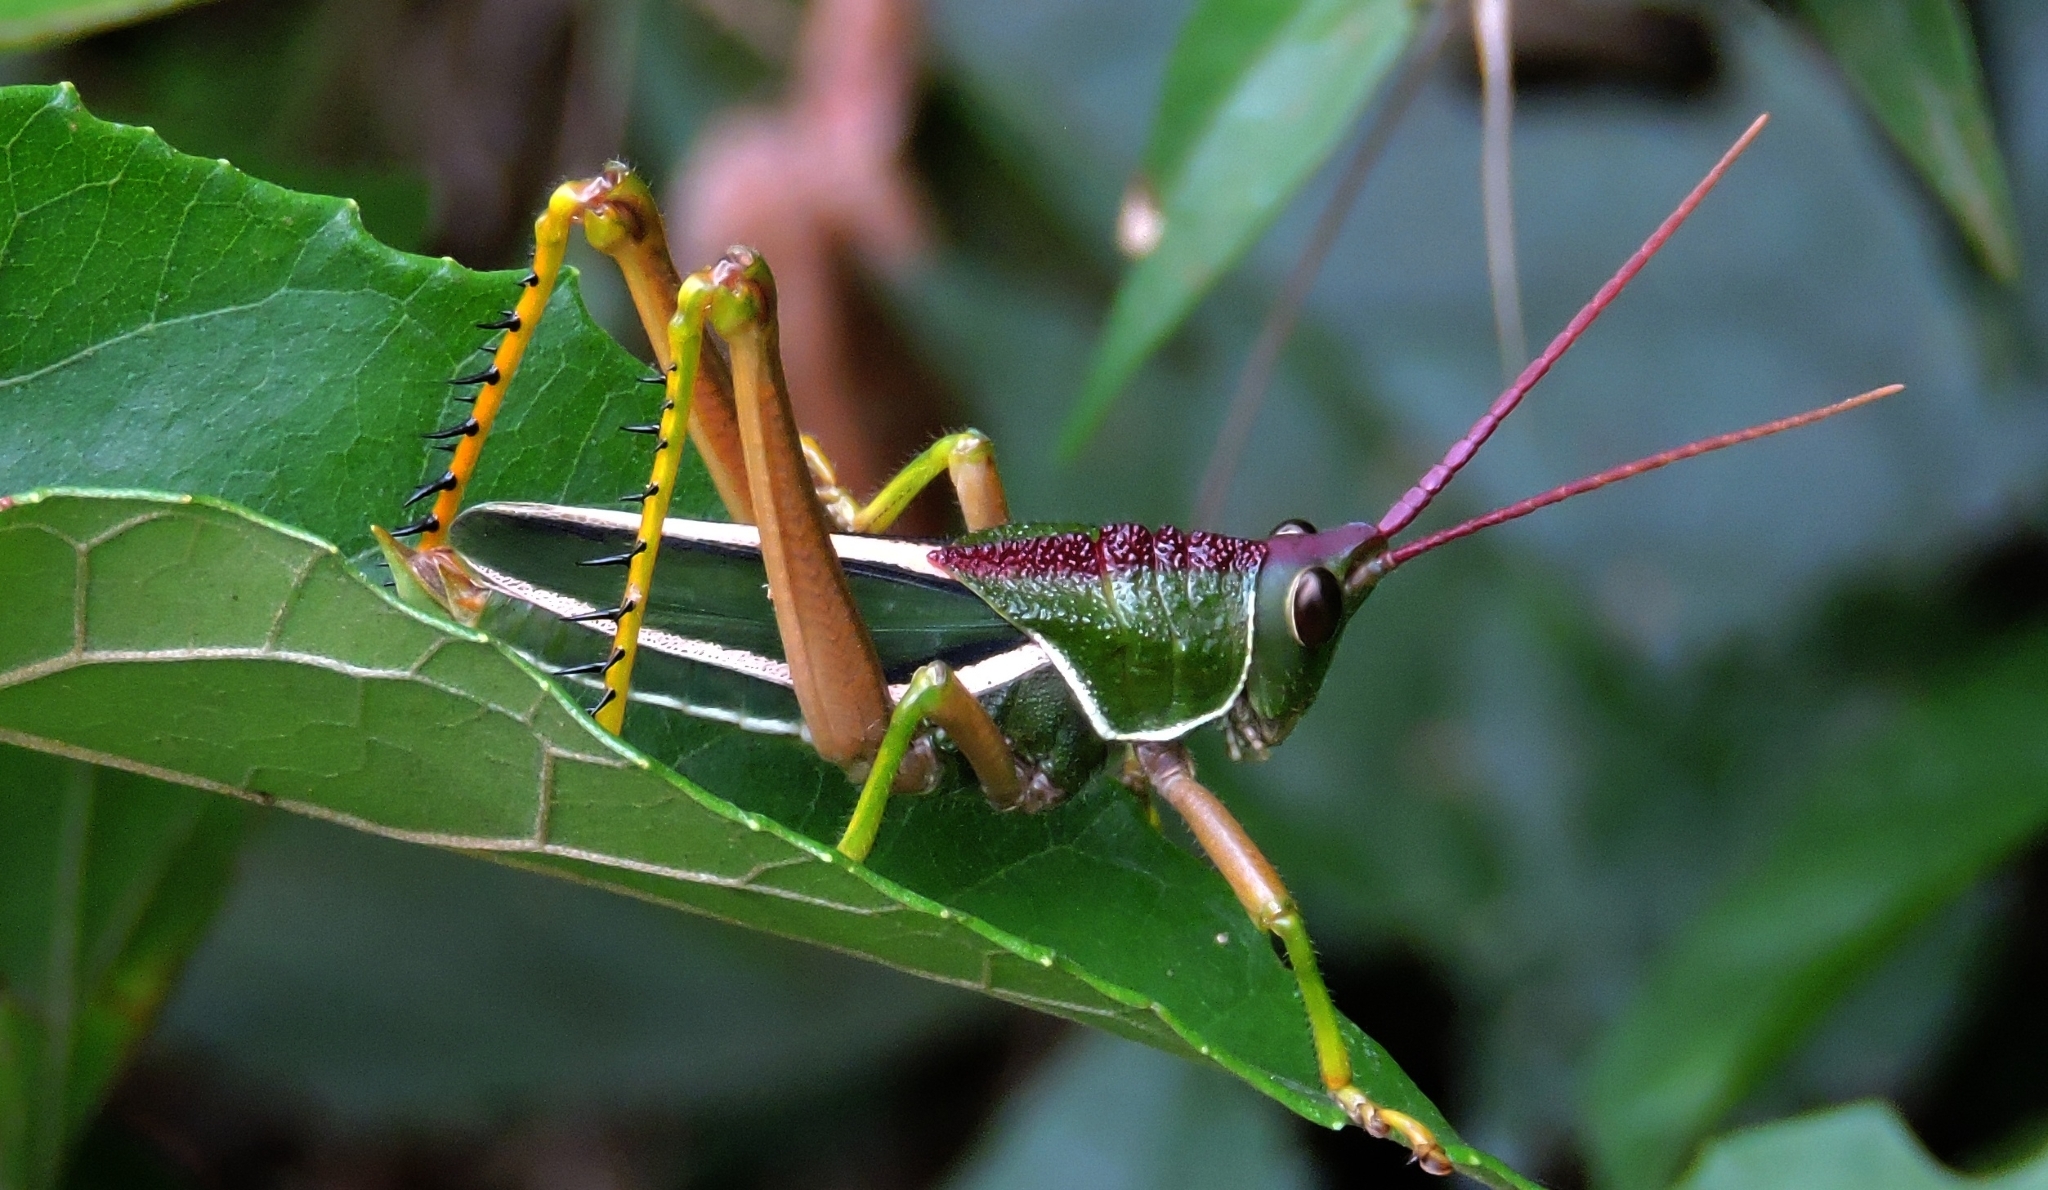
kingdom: Animalia
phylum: Arthropoda
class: Insecta
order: Orthoptera
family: Romaleidae
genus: Staleochlora
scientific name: Staleochlora fruhstorferi
